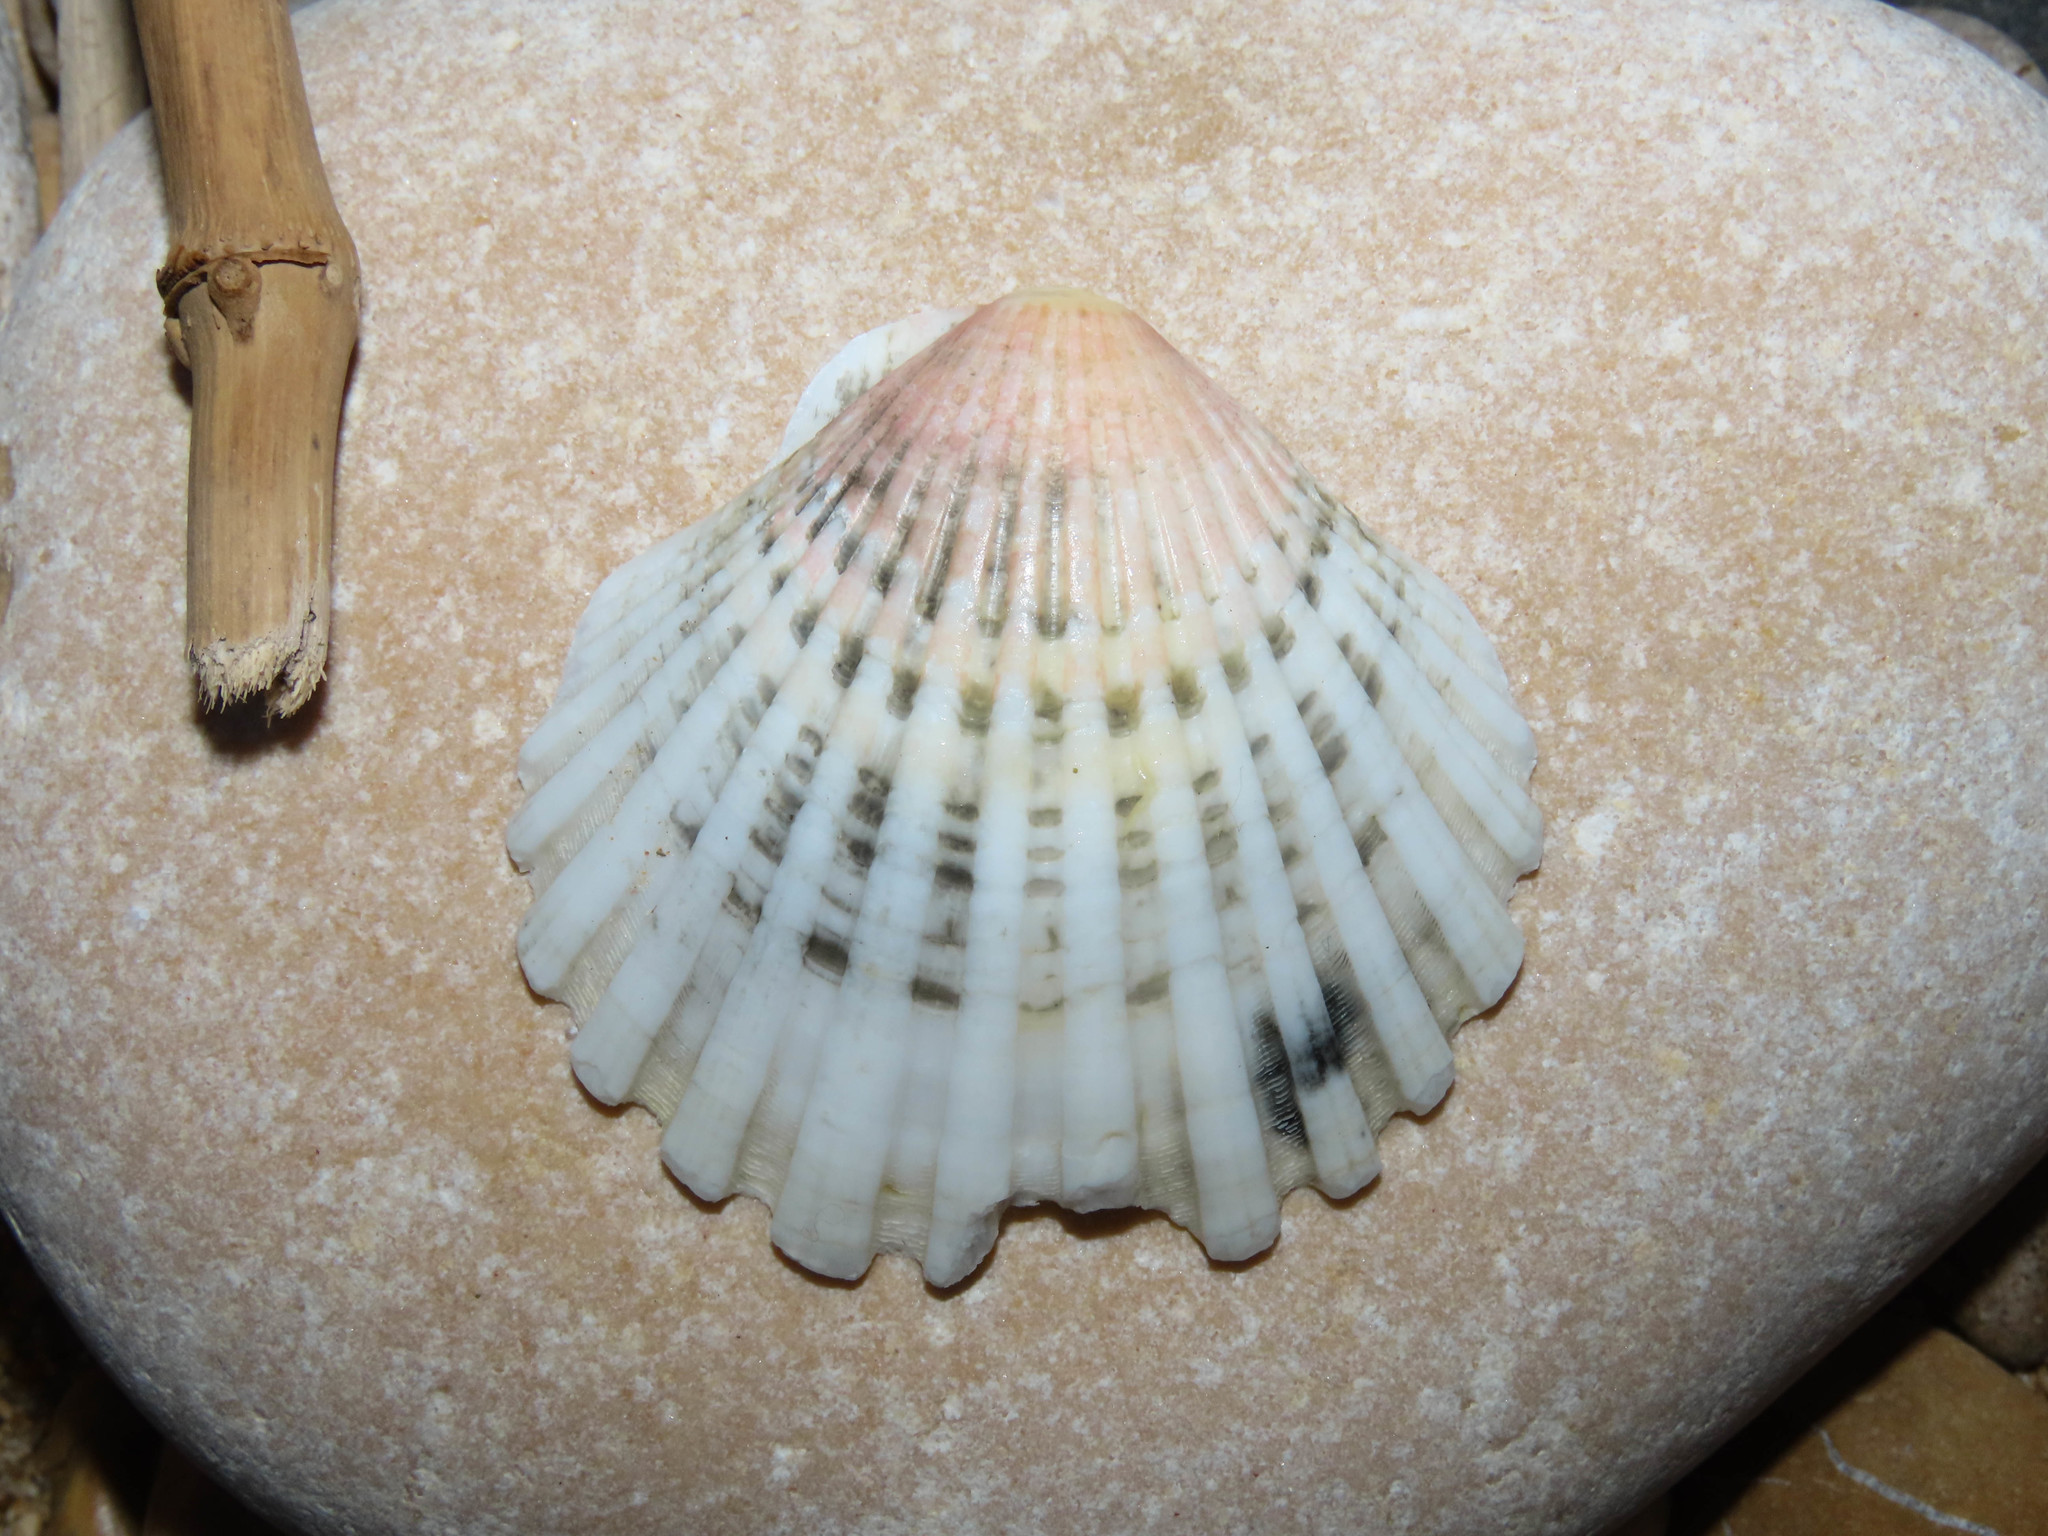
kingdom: Animalia
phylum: Mollusca
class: Bivalvia
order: Pectinida
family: Pectinidae
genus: Pecten
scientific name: Pecten jacobaeus
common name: St.james's scallop
